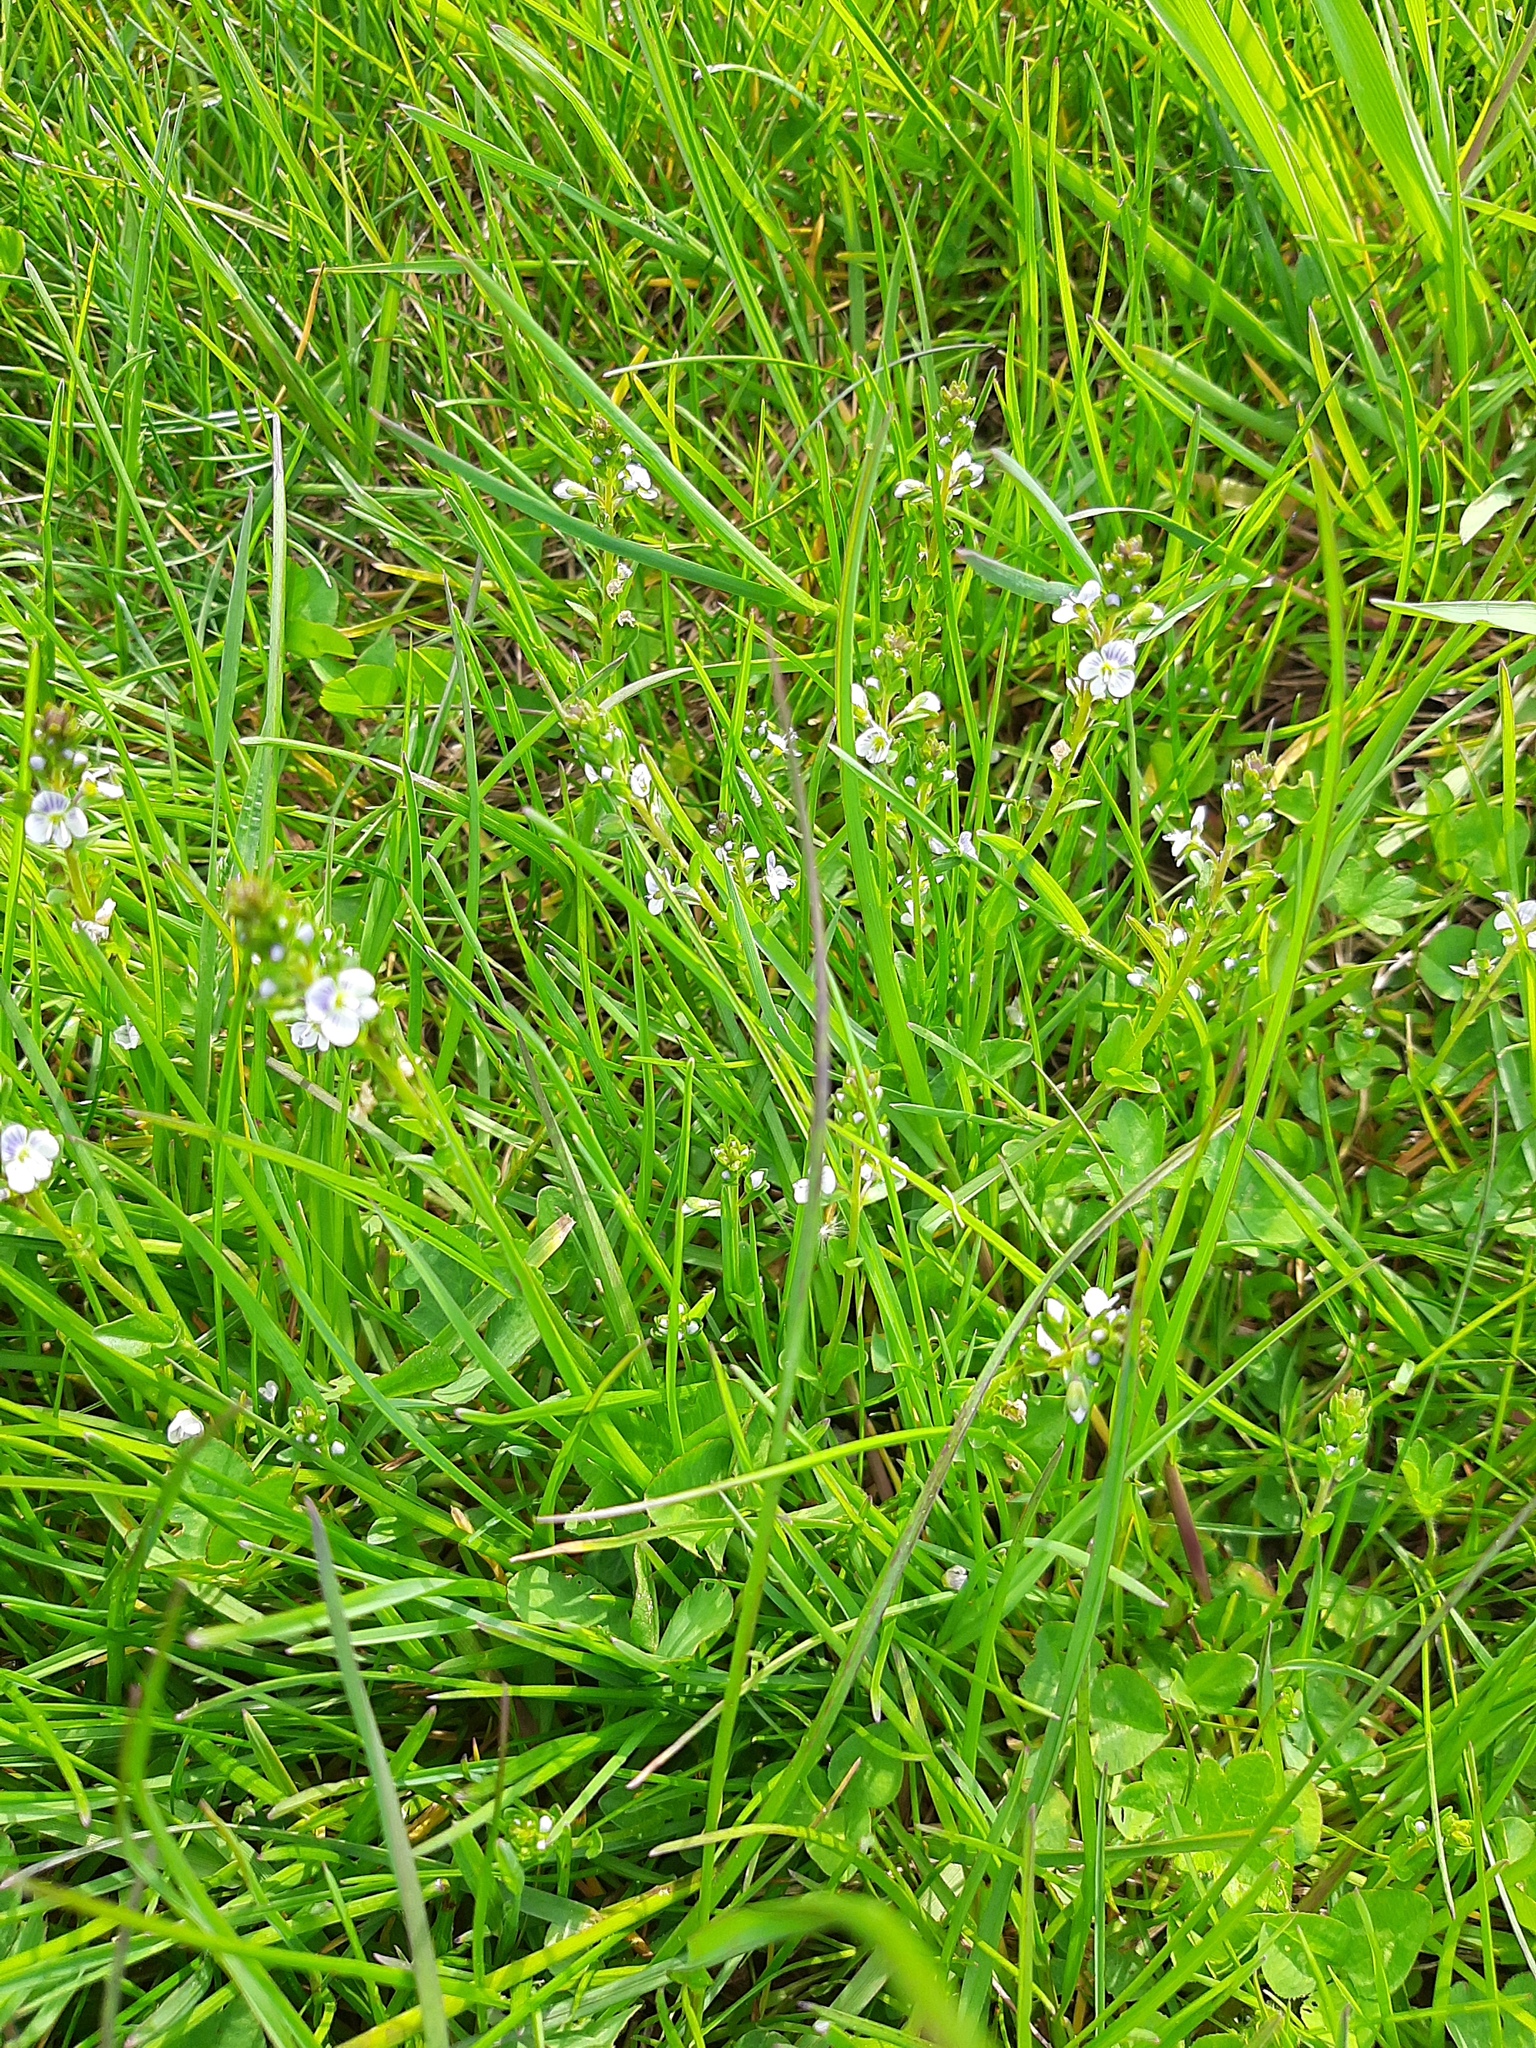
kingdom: Plantae
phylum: Tracheophyta
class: Magnoliopsida
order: Lamiales
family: Plantaginaceae
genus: Veronica
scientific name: Veronica serpyllifolia
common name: Thyme-leaved speedwell
